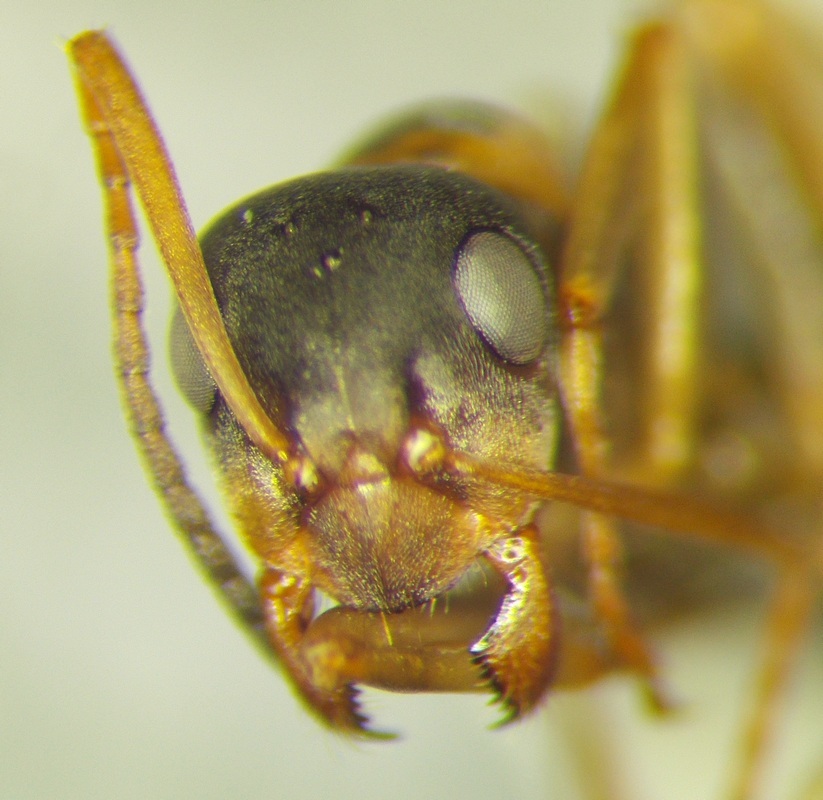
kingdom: Animalia
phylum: Arthropoda
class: Insecta
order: Hymenoptera
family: Formicidae
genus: Formica
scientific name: Formica cunicularia
